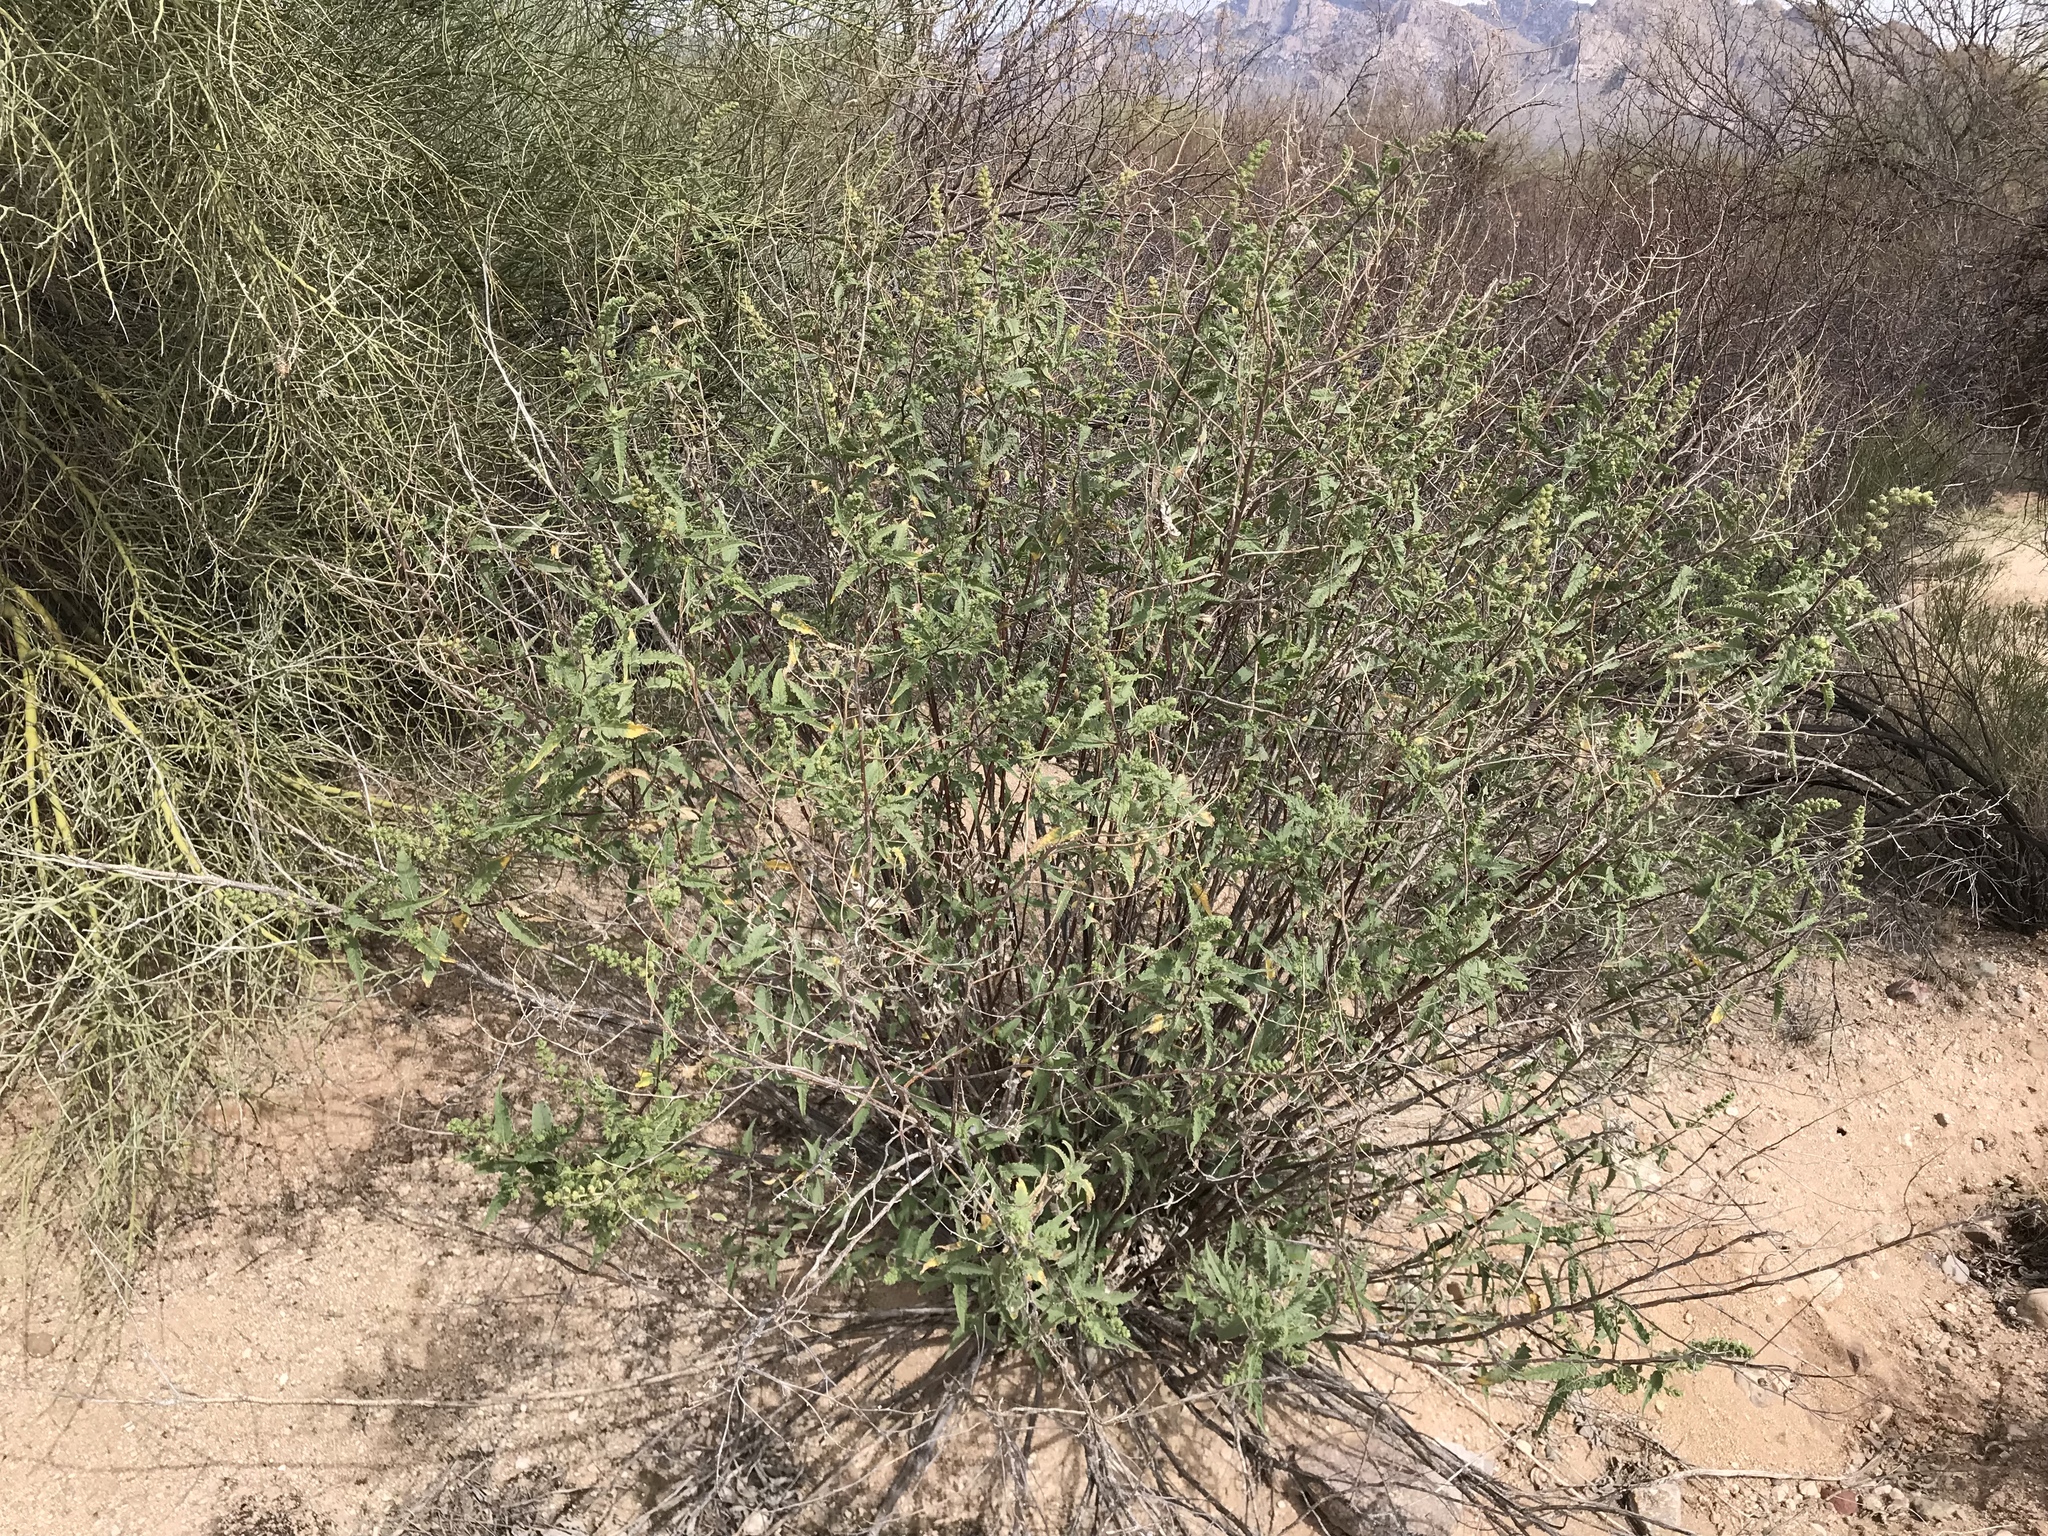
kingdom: Plantae
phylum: Tracheophyta
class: Magnoliopsida
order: Asterales
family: Asteraceae
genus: Ambrosia
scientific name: Ambrosia ambrosioides
